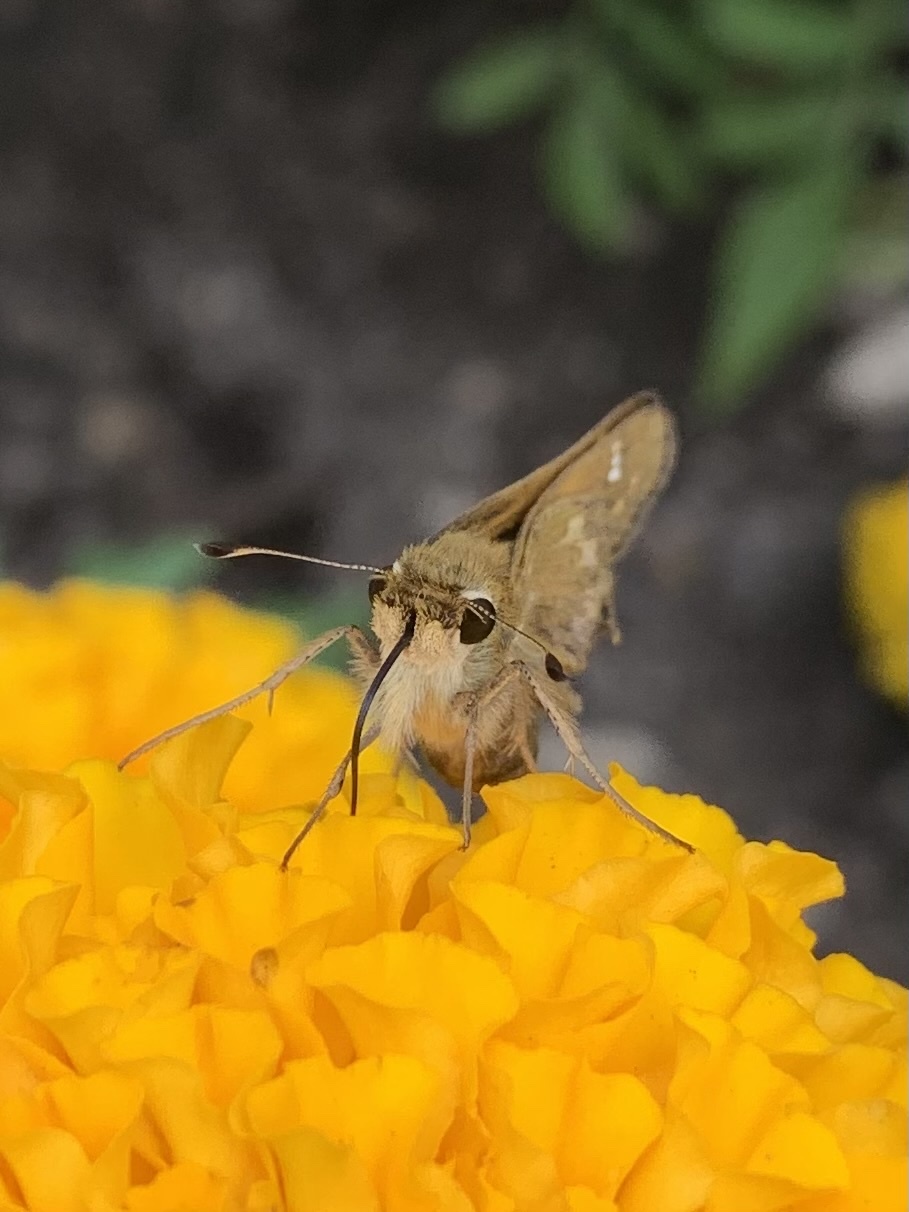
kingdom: Animalia
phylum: Arthropoda
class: Insecta
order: Lepidoptera
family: Hesperiidae
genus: Atalopedes
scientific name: Atalopedes
